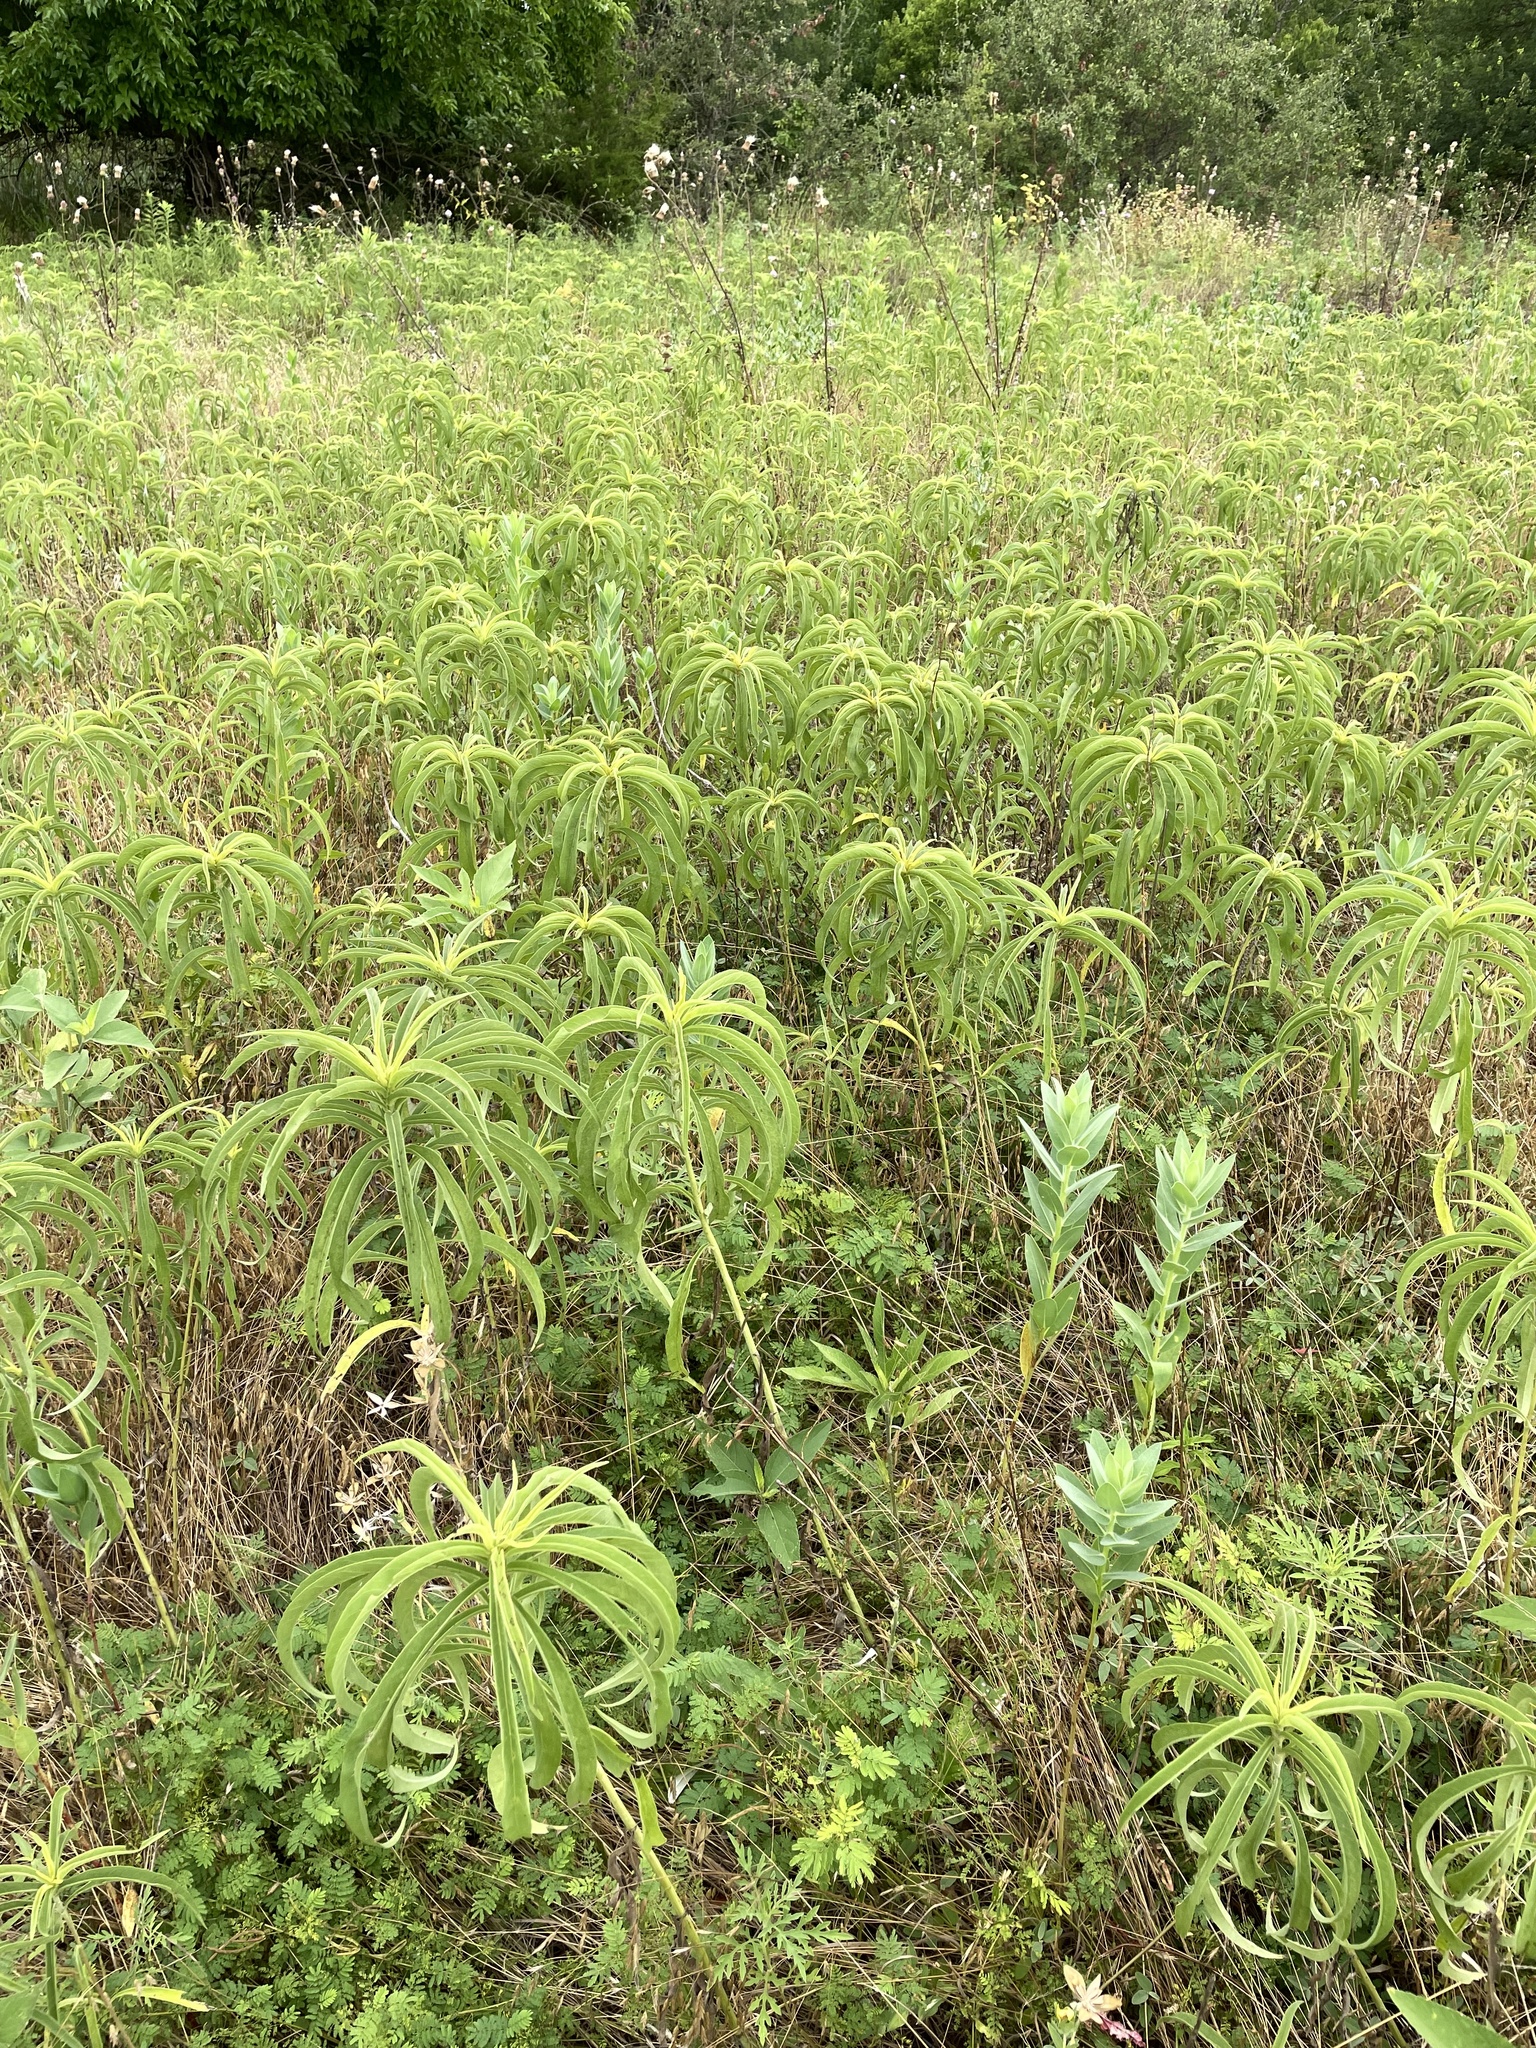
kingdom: Plantae
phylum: Tracheophyta
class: Magnoliopsida
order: Asterales
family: Asteraceae
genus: Helianthus
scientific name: Helianthus maximiliani
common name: Maximilian's sunflower
